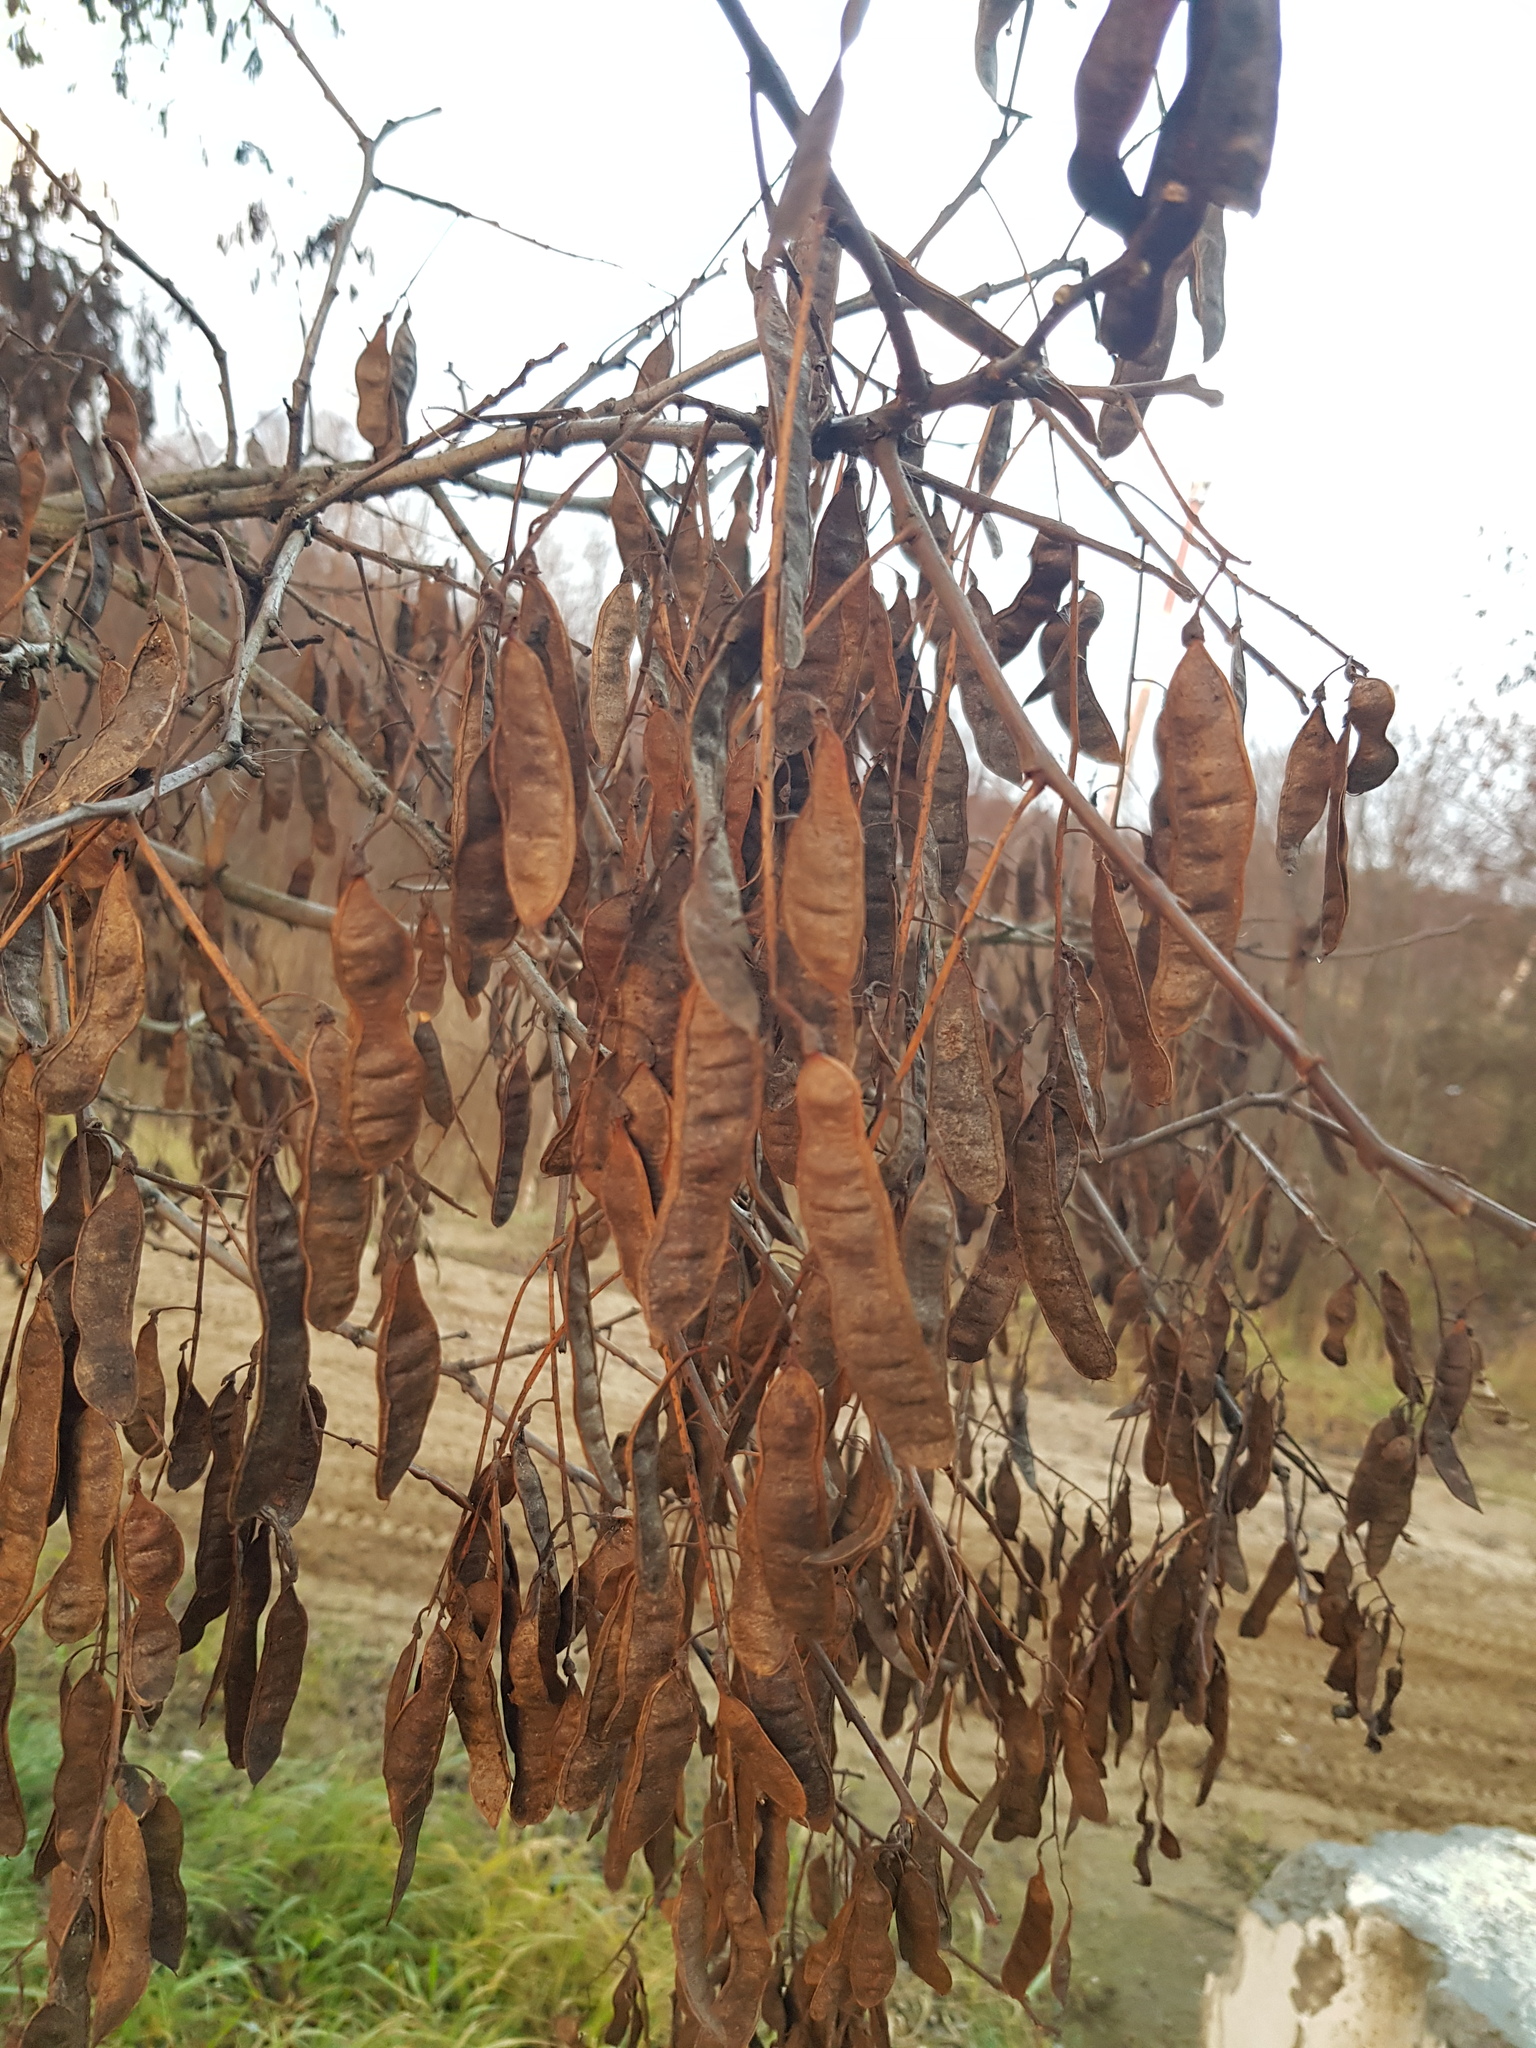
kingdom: Plantae
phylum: Tracheophyta
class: Magnoliopsida
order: Fabales
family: Fabaceae
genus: Robinia
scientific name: Robinia pseudoacacia
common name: Black locust
